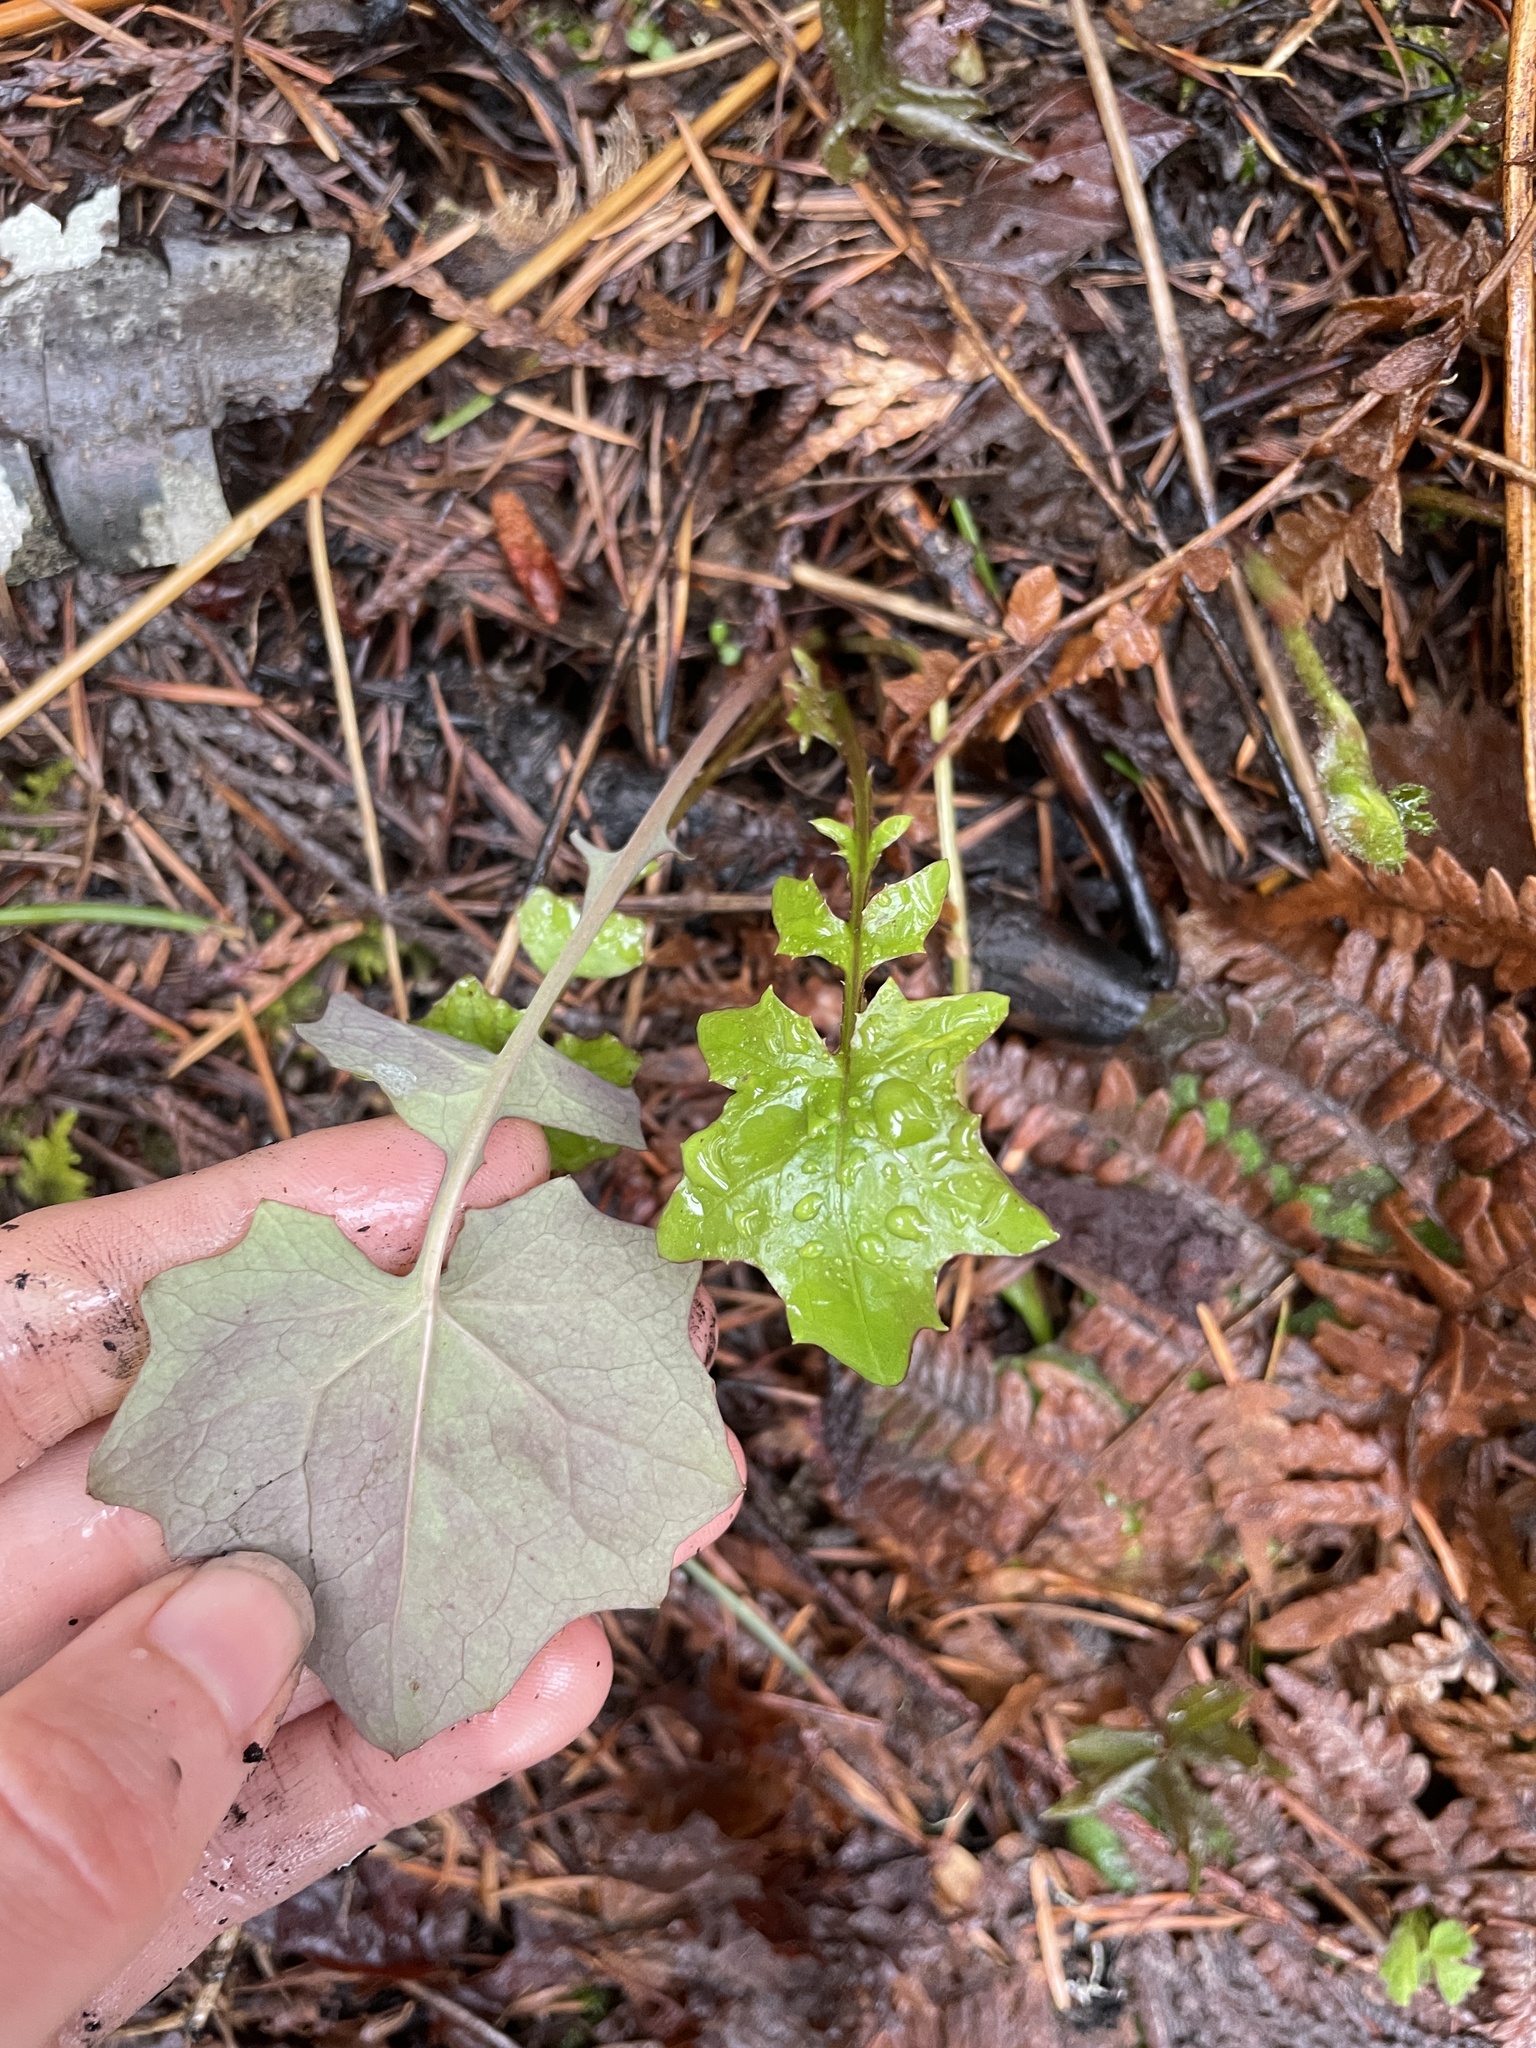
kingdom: Plantae
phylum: Tracheophyta
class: Magnoliopsida
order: Asterales
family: Asteraceae
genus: Mycelis
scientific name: Mycelis muralis
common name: Wall lettuce
